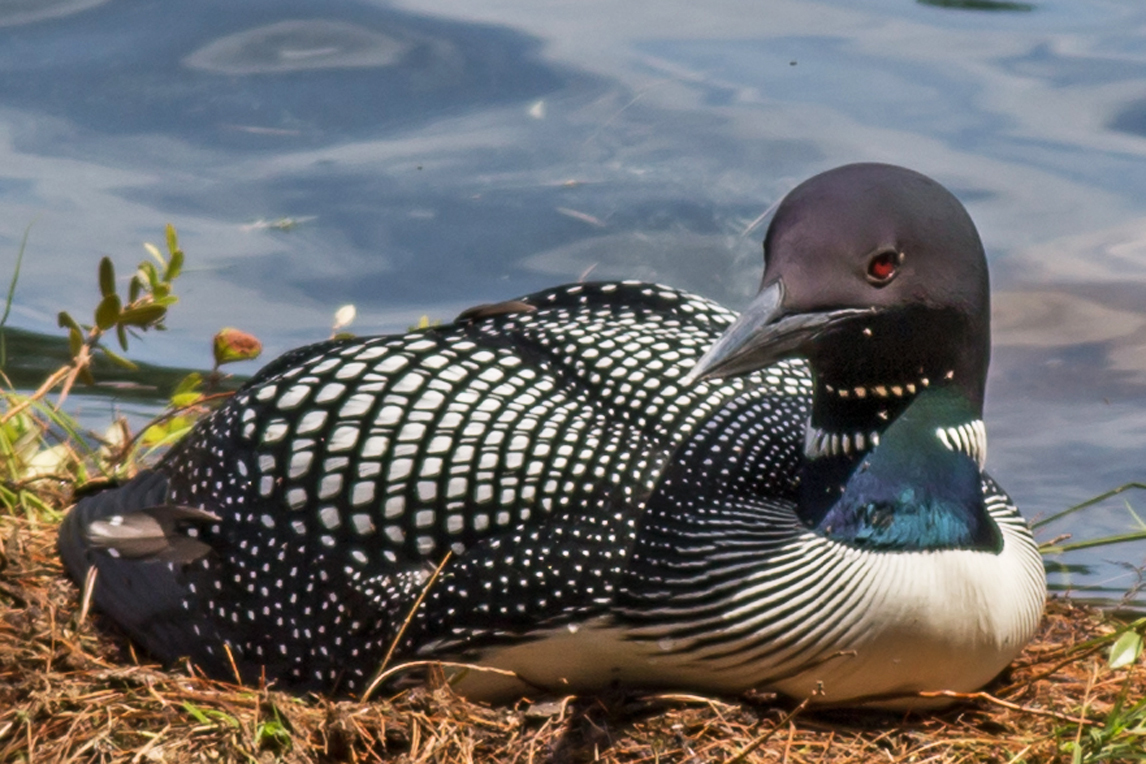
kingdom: Animalia
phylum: Chordata
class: Aves
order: Gaviiformes
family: Gaviidae
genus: Gavia
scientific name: Gavia immer
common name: Common loon
